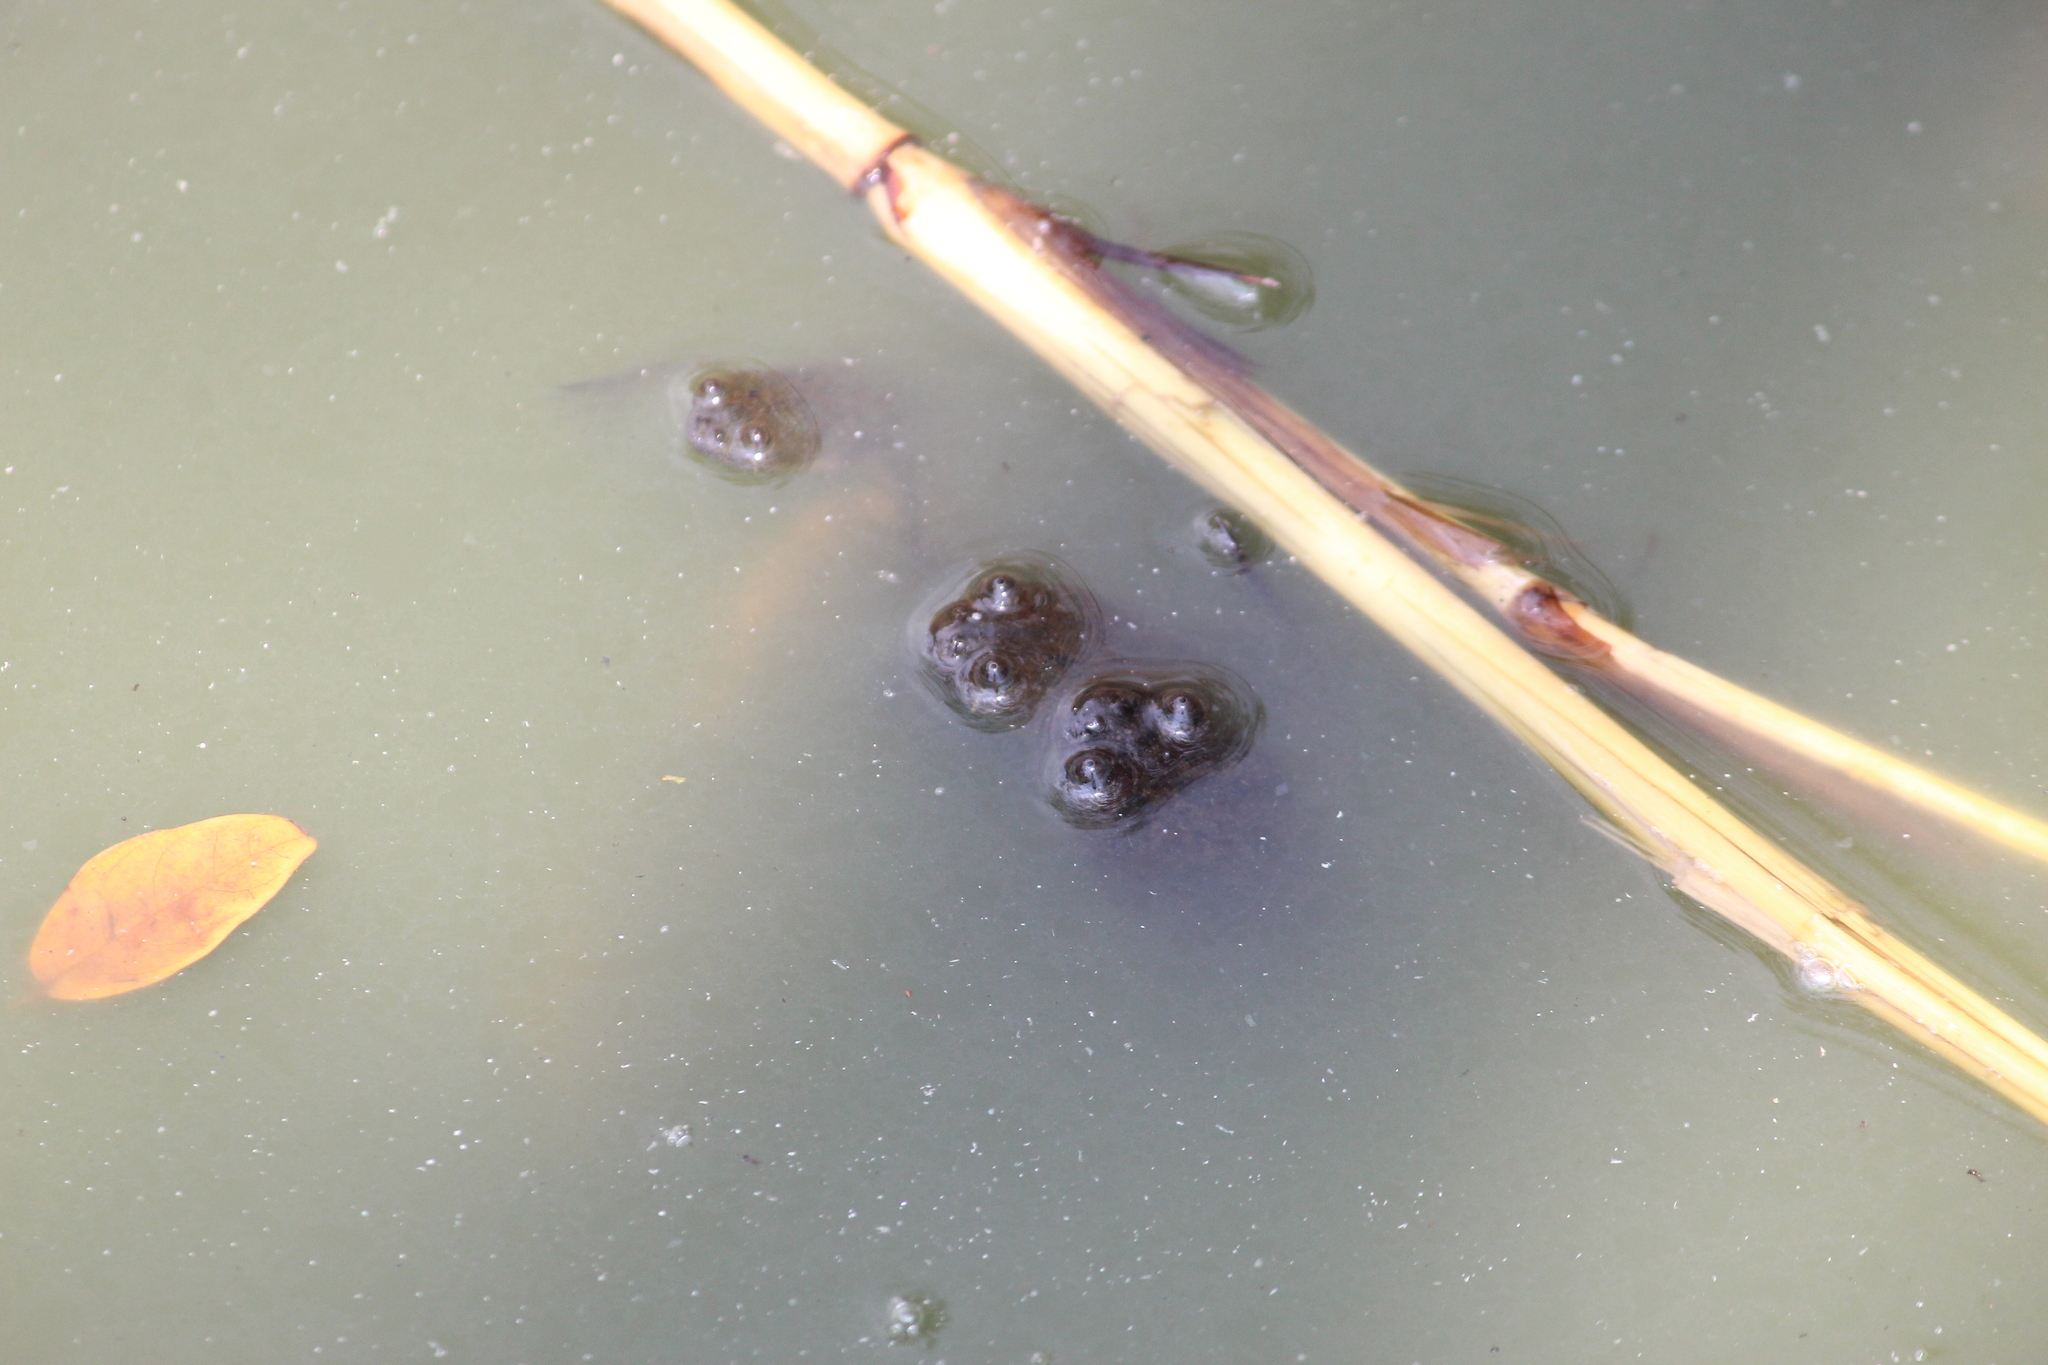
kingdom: Animalia
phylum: Chordata
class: Amphibia
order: Anura
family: Pipidae
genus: Xenopus
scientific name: Xenopus muelleri
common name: Muller's clawed frog
